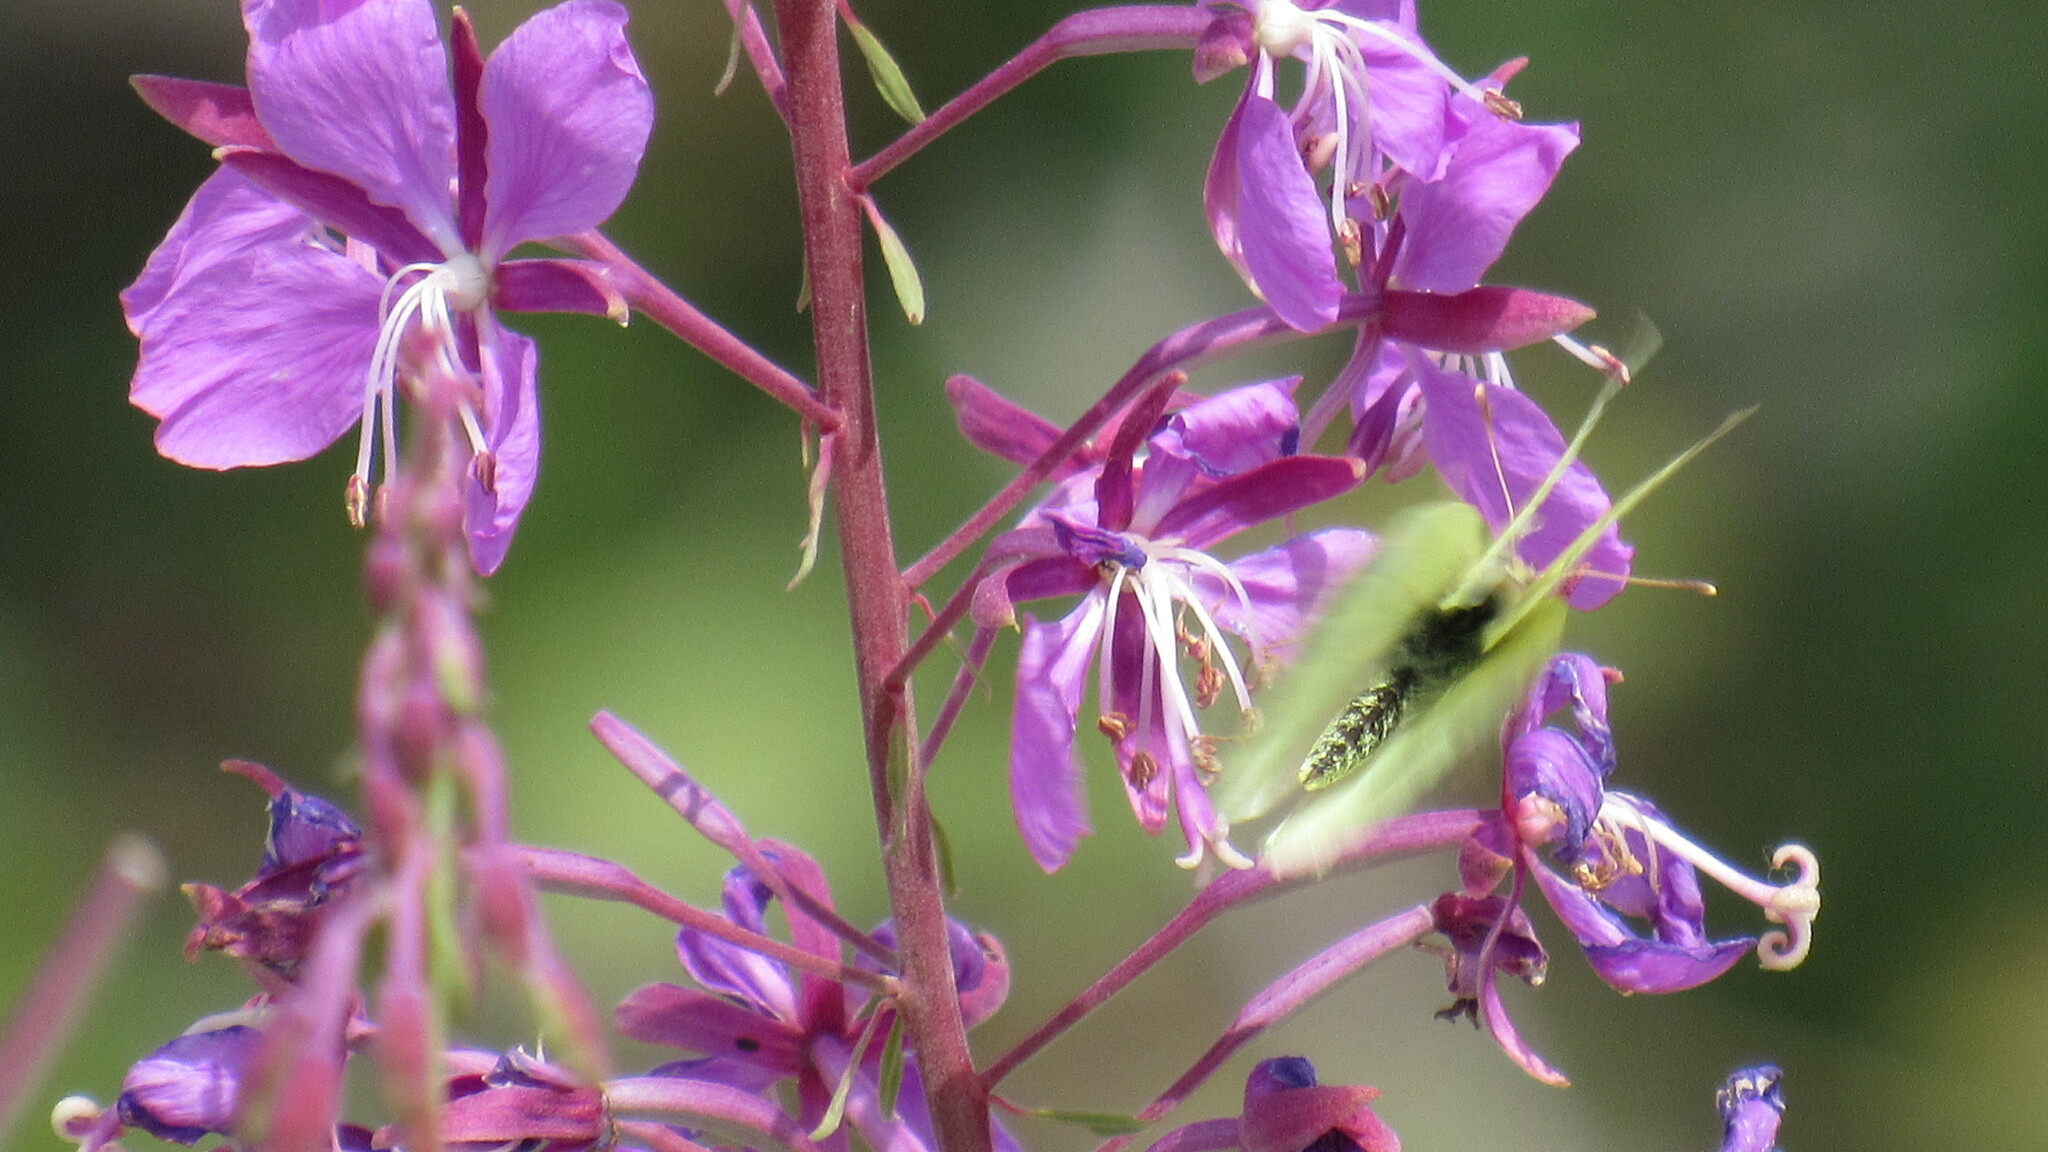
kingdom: Animalia
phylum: Arthropoda
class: Insecta
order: Lepidoptera
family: Pieridae
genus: Colias
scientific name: Colias palaeno
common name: Moorland clouded yellow
